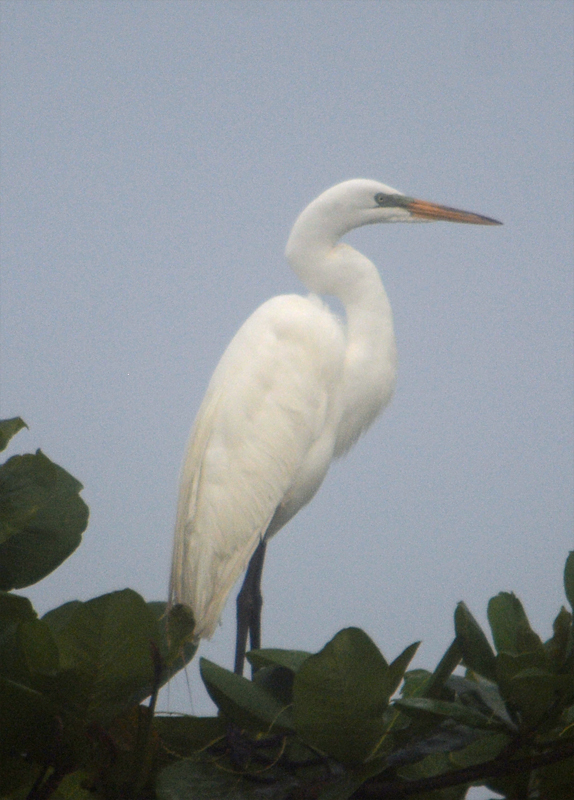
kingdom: Animalia
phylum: Chordata
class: Aves
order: Pelecaniformes
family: Ardeidae
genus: Ardea
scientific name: Ardea alba
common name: Great egret
